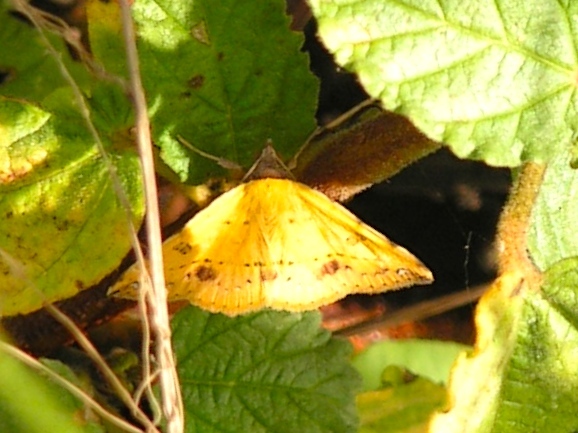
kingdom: Animalia
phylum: Arthropoda
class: Insecta
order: Lepidoptera
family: Erebidae
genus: Hemeroplanis
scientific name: Hemeroplanis
